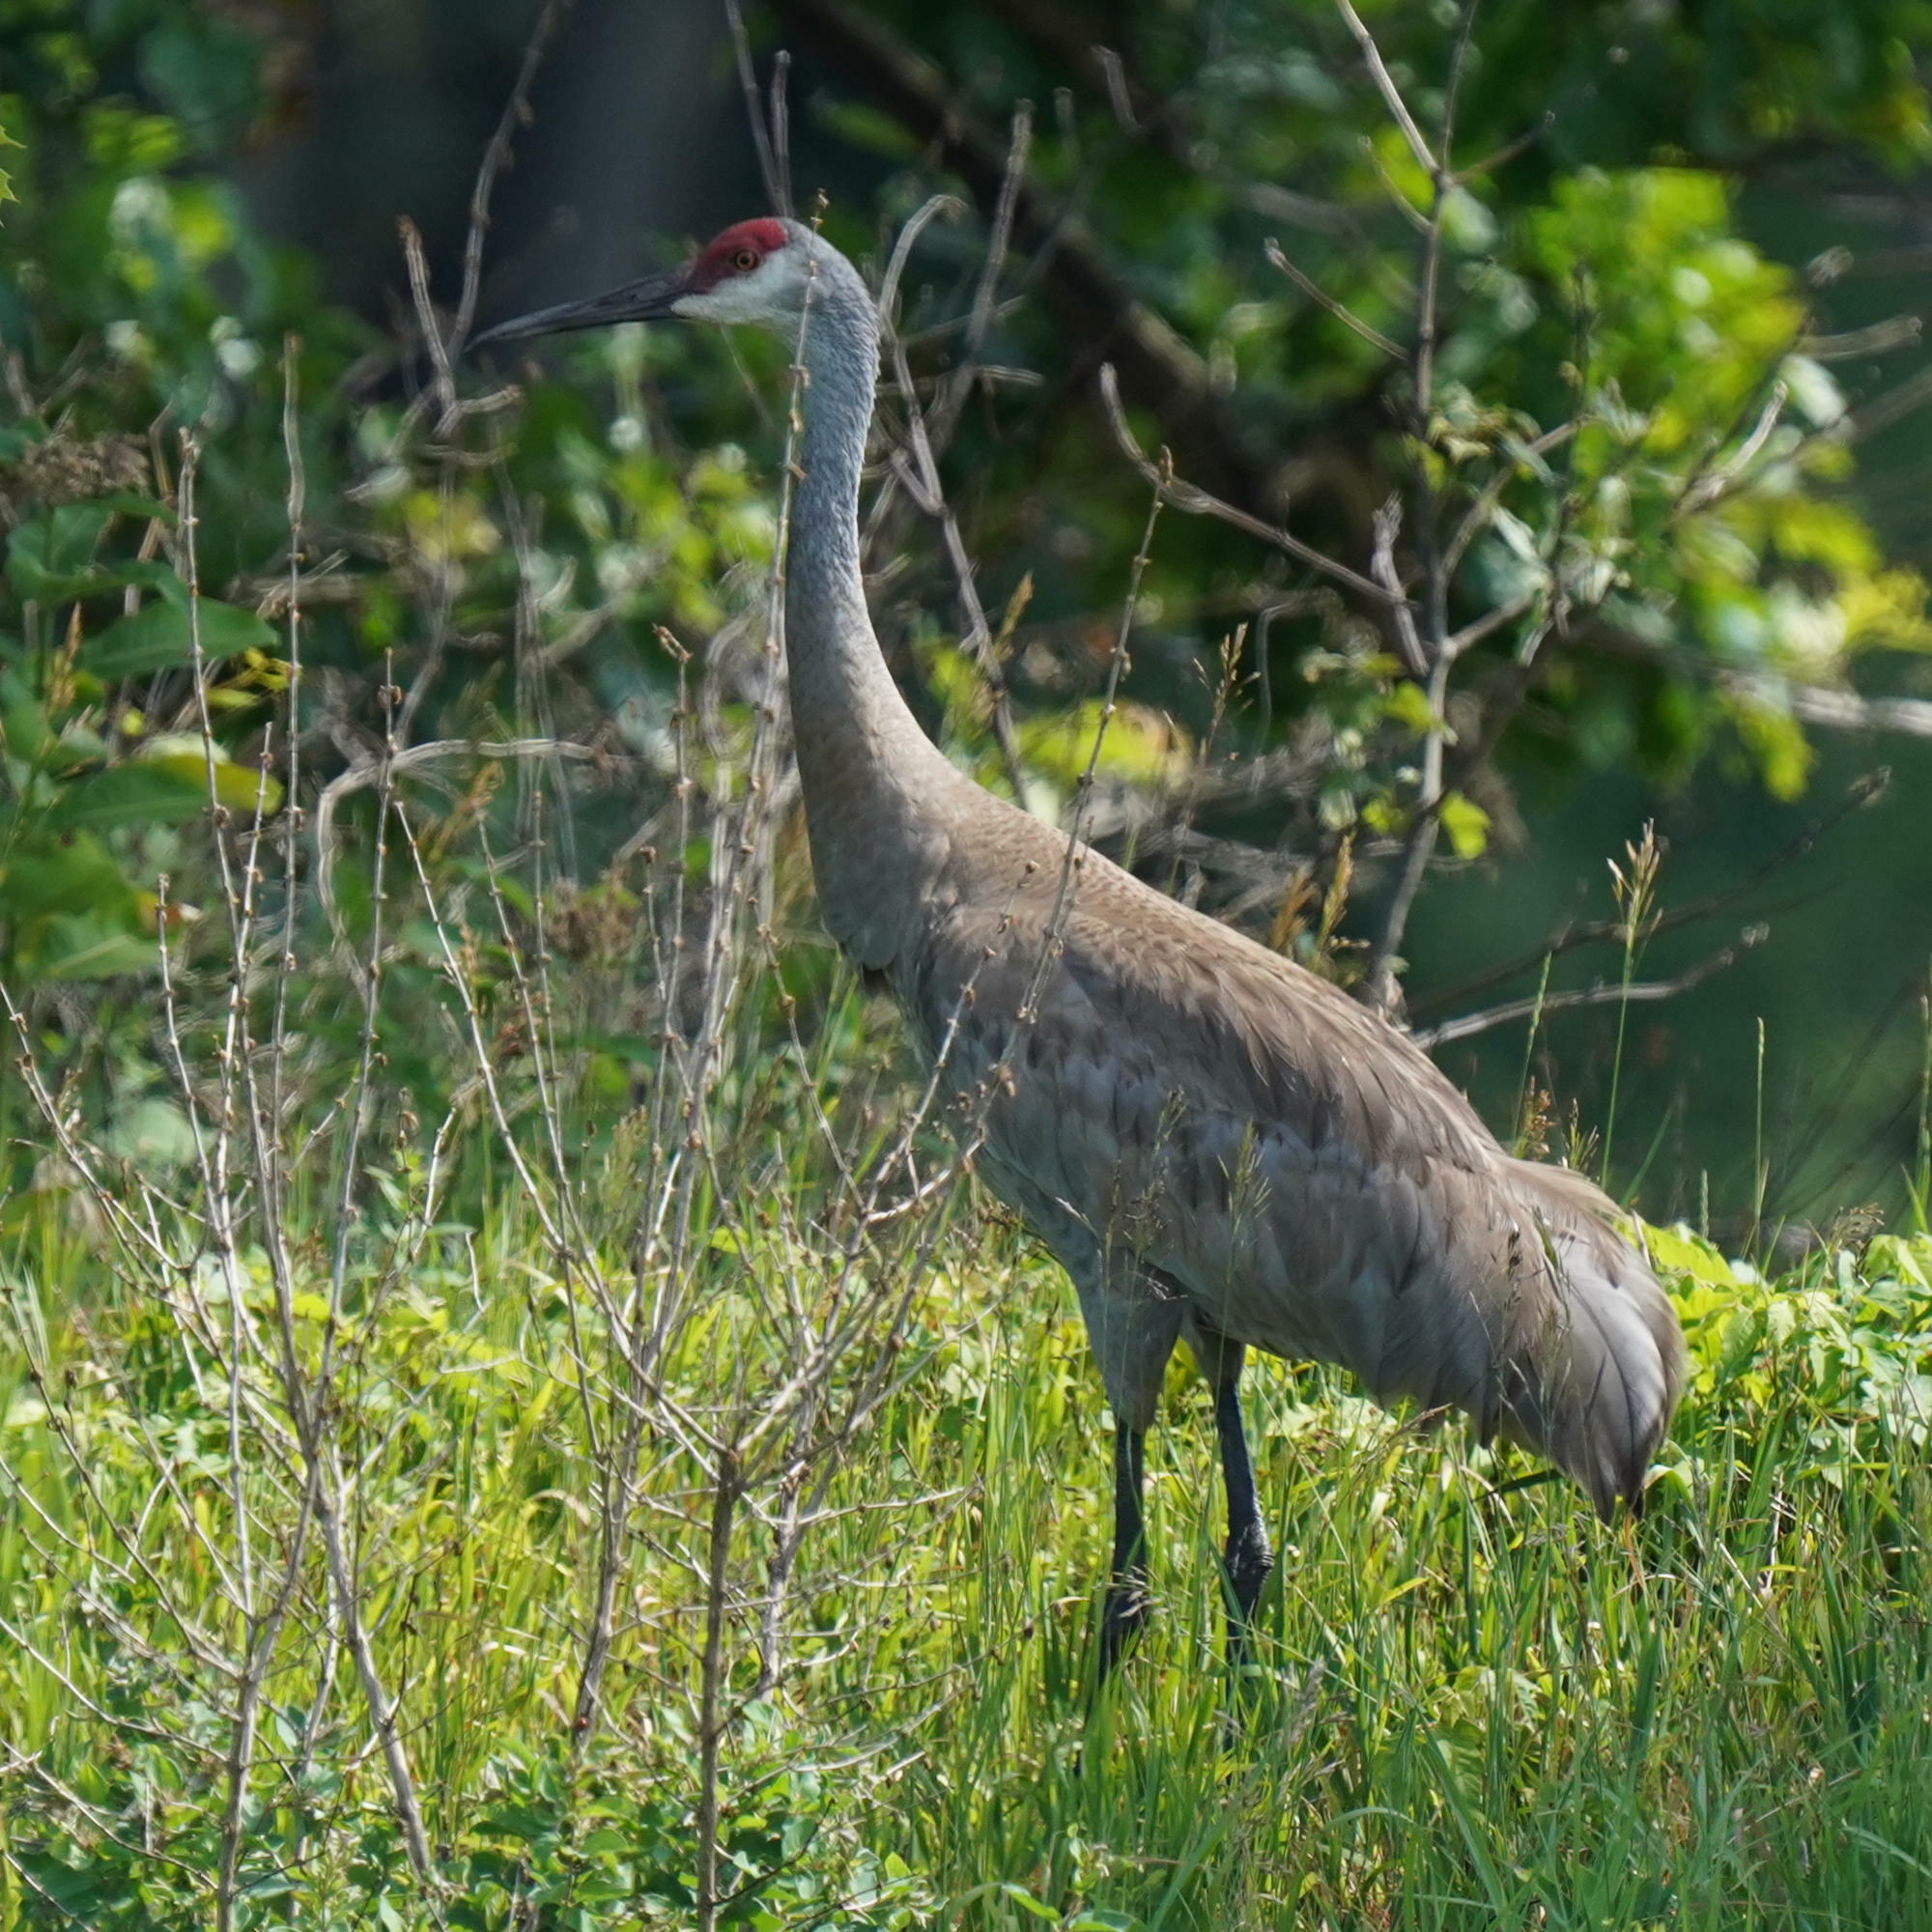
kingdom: Animalia
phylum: Chordata
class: Aves
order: Gruiformes
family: Gruidae
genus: Grus
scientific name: Grus canadensis
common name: Sandhill crane
